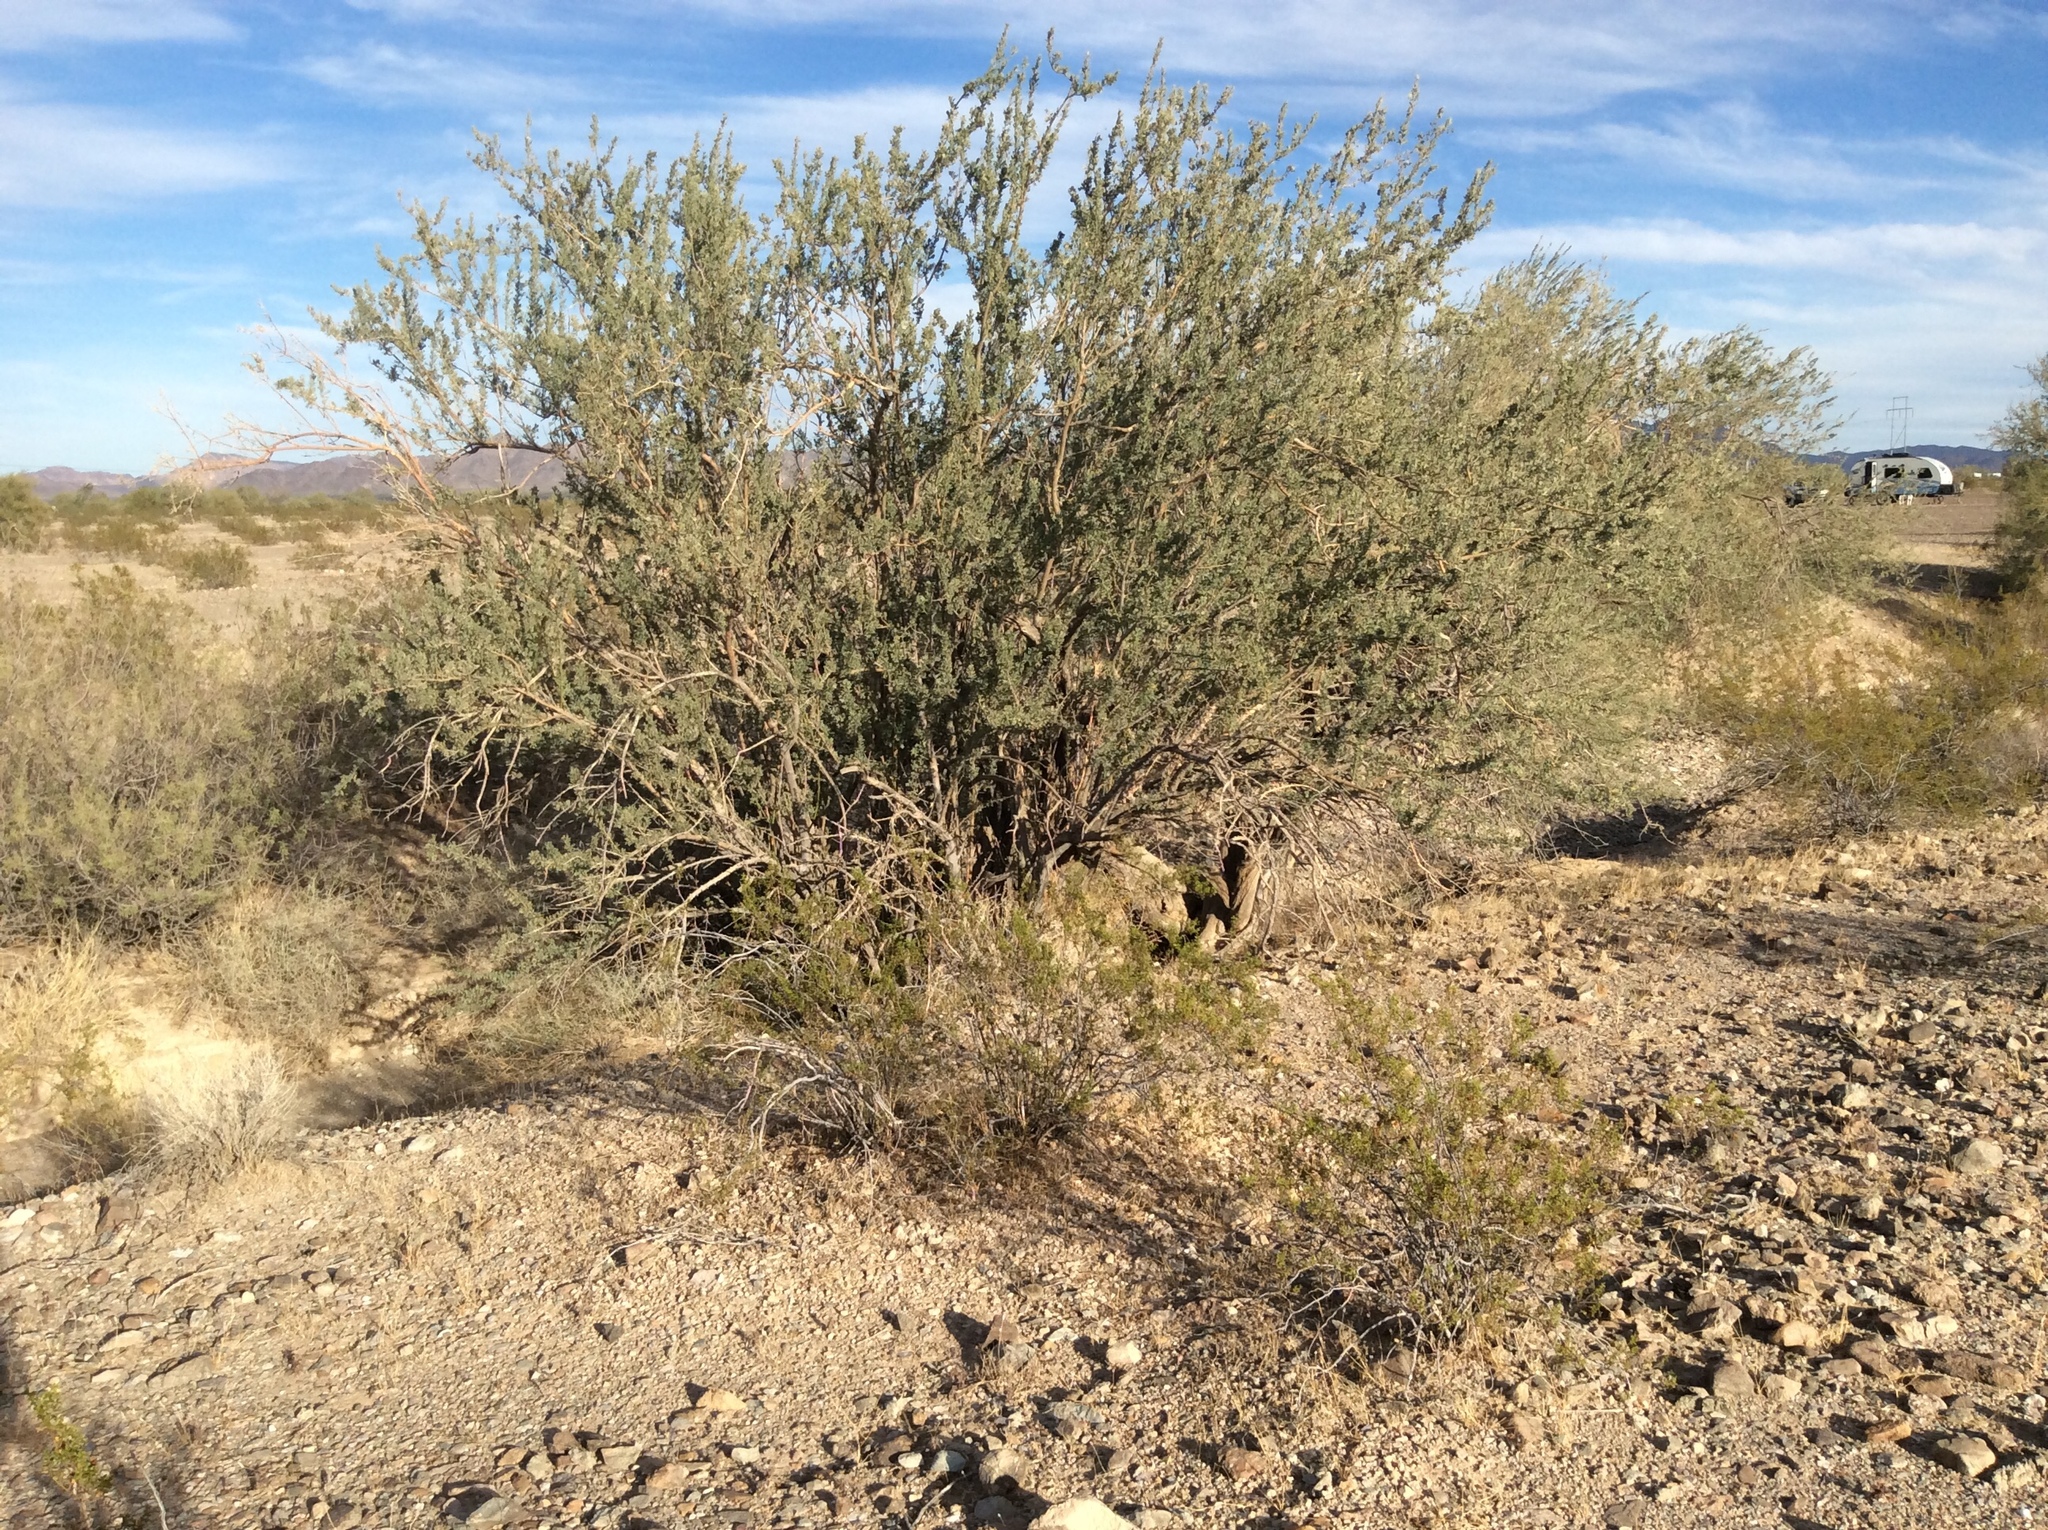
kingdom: Plantae
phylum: Tracheophyta
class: Magnoliopsida
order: Fabales
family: Fabaceae
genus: Olneya
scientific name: Olneya tesota
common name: Desert ironwood
